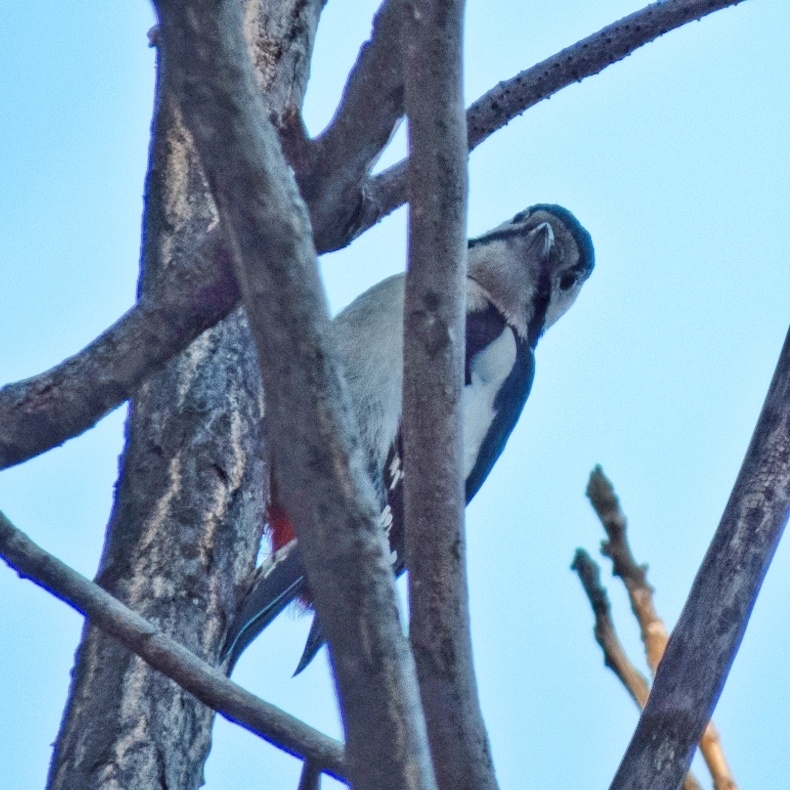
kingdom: Animalia
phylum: Chordata
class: Aves
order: Piciformes
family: Picidae
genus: Dendrocopos
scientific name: Dendrocopos major
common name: Great spotted woodpecker
